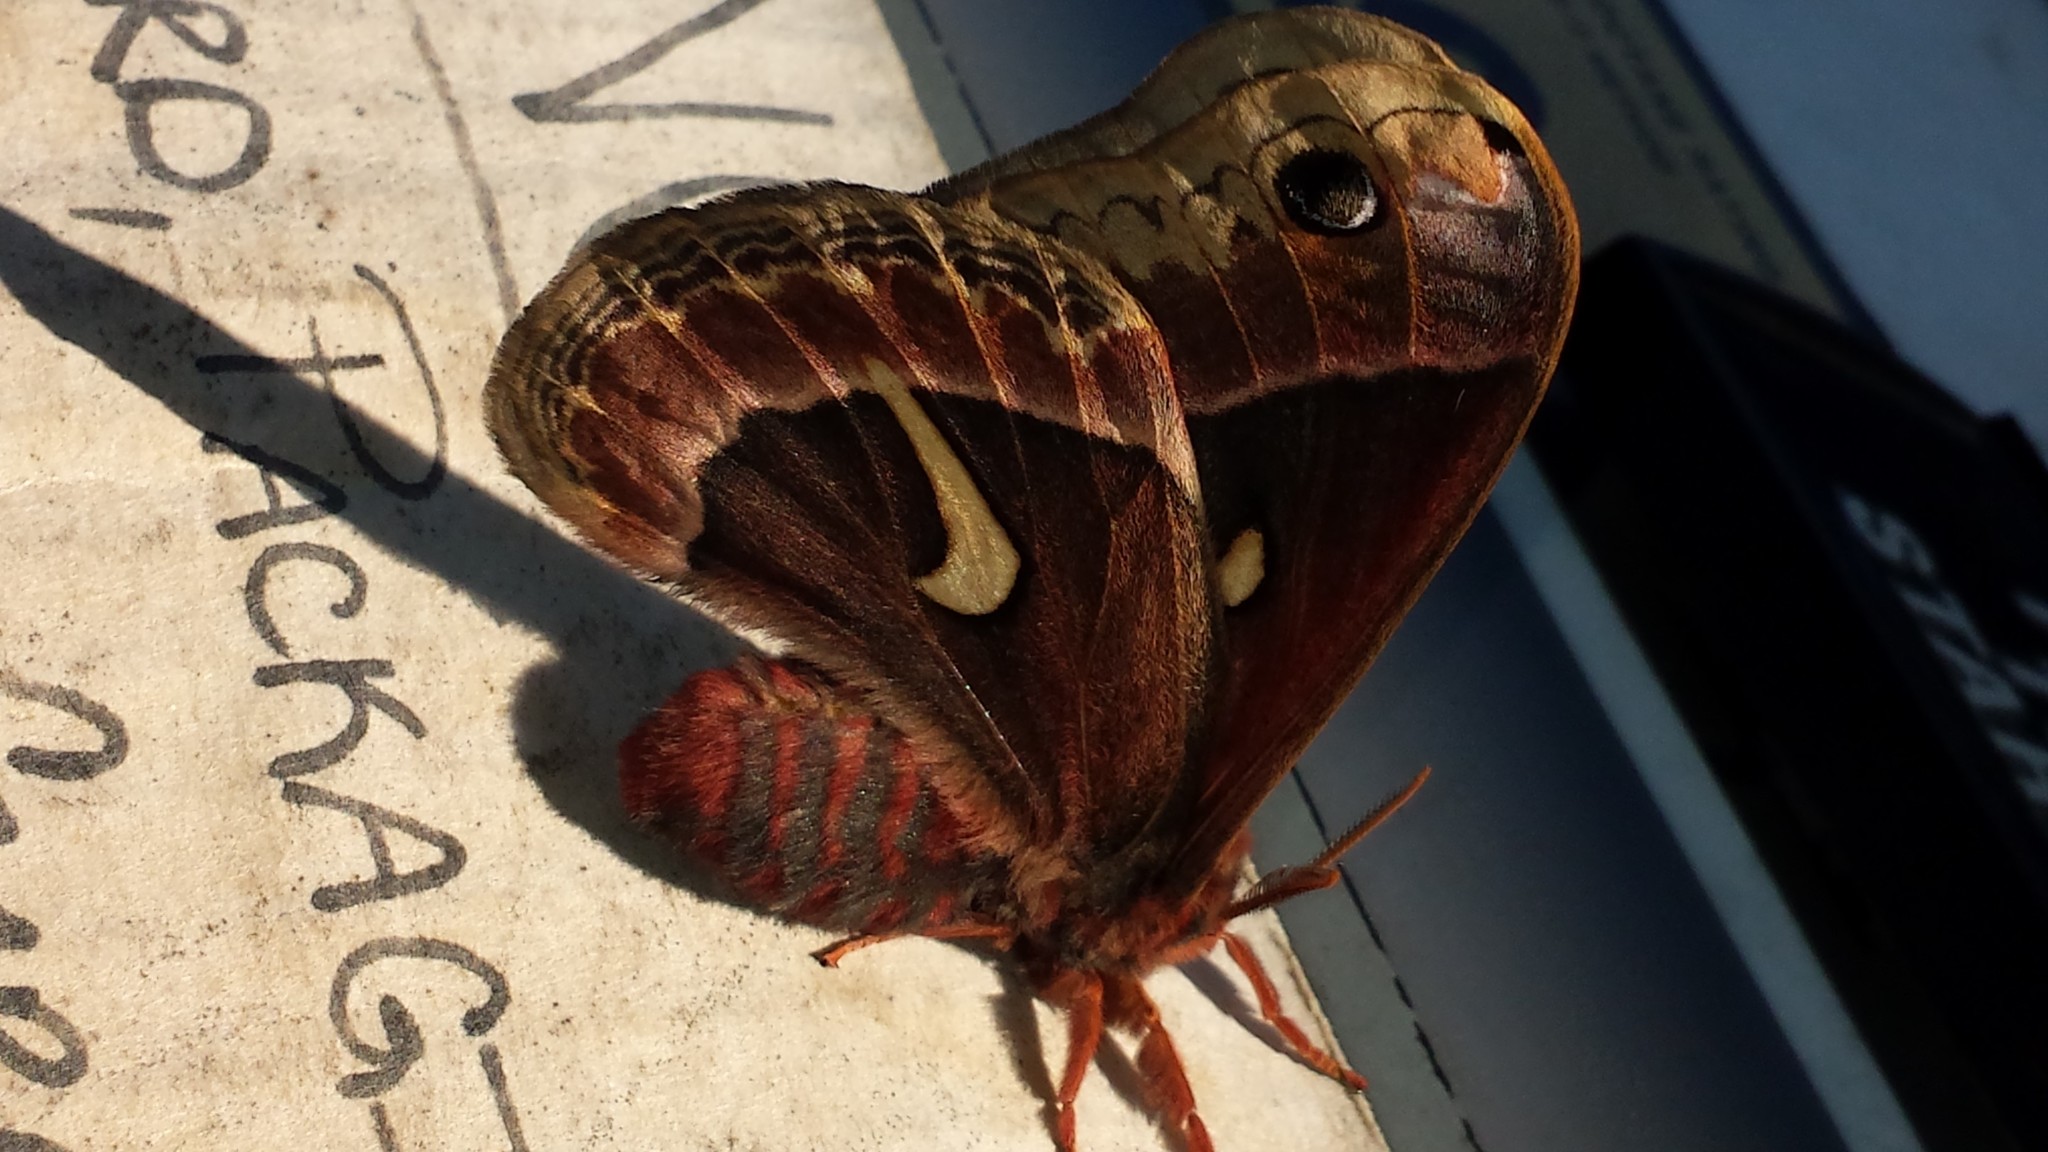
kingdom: Animalia
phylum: Arthropoda
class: Insecta
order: Lepidoptera
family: Saturniidae
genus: Hyalophora
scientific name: Hyalophora euryalus
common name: Ceanothus silkmoth
